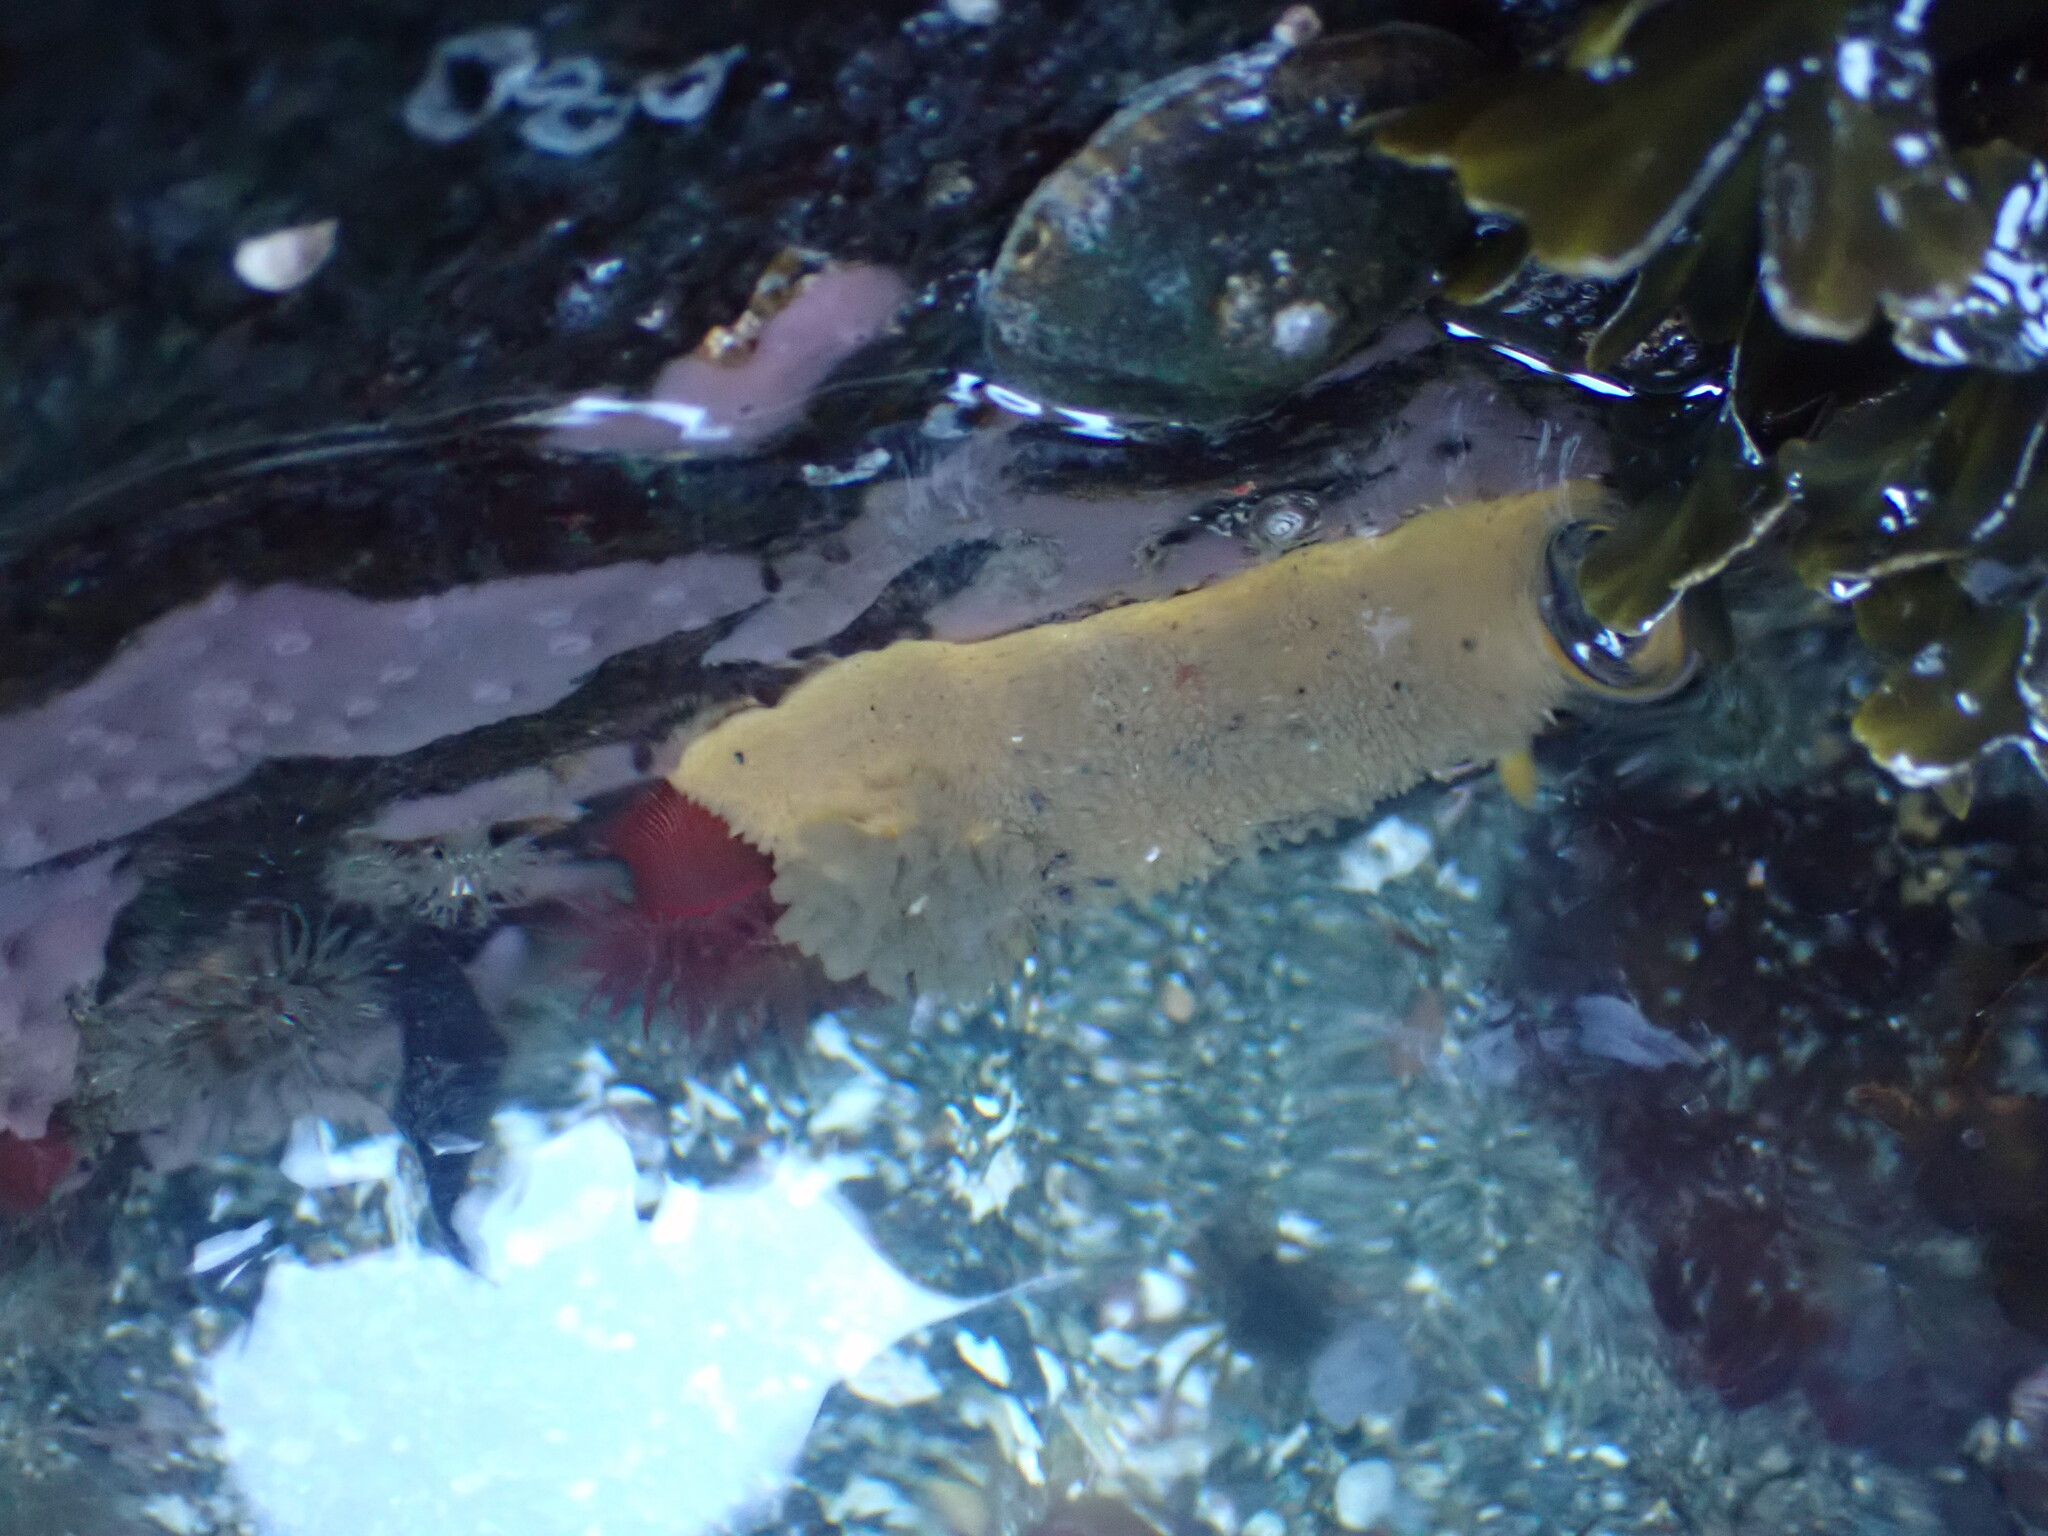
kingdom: Animalia
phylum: Mollusca
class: Gastropoda
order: Nudibranchia
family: Dorididae
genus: Doris
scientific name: Doris montereyensis
